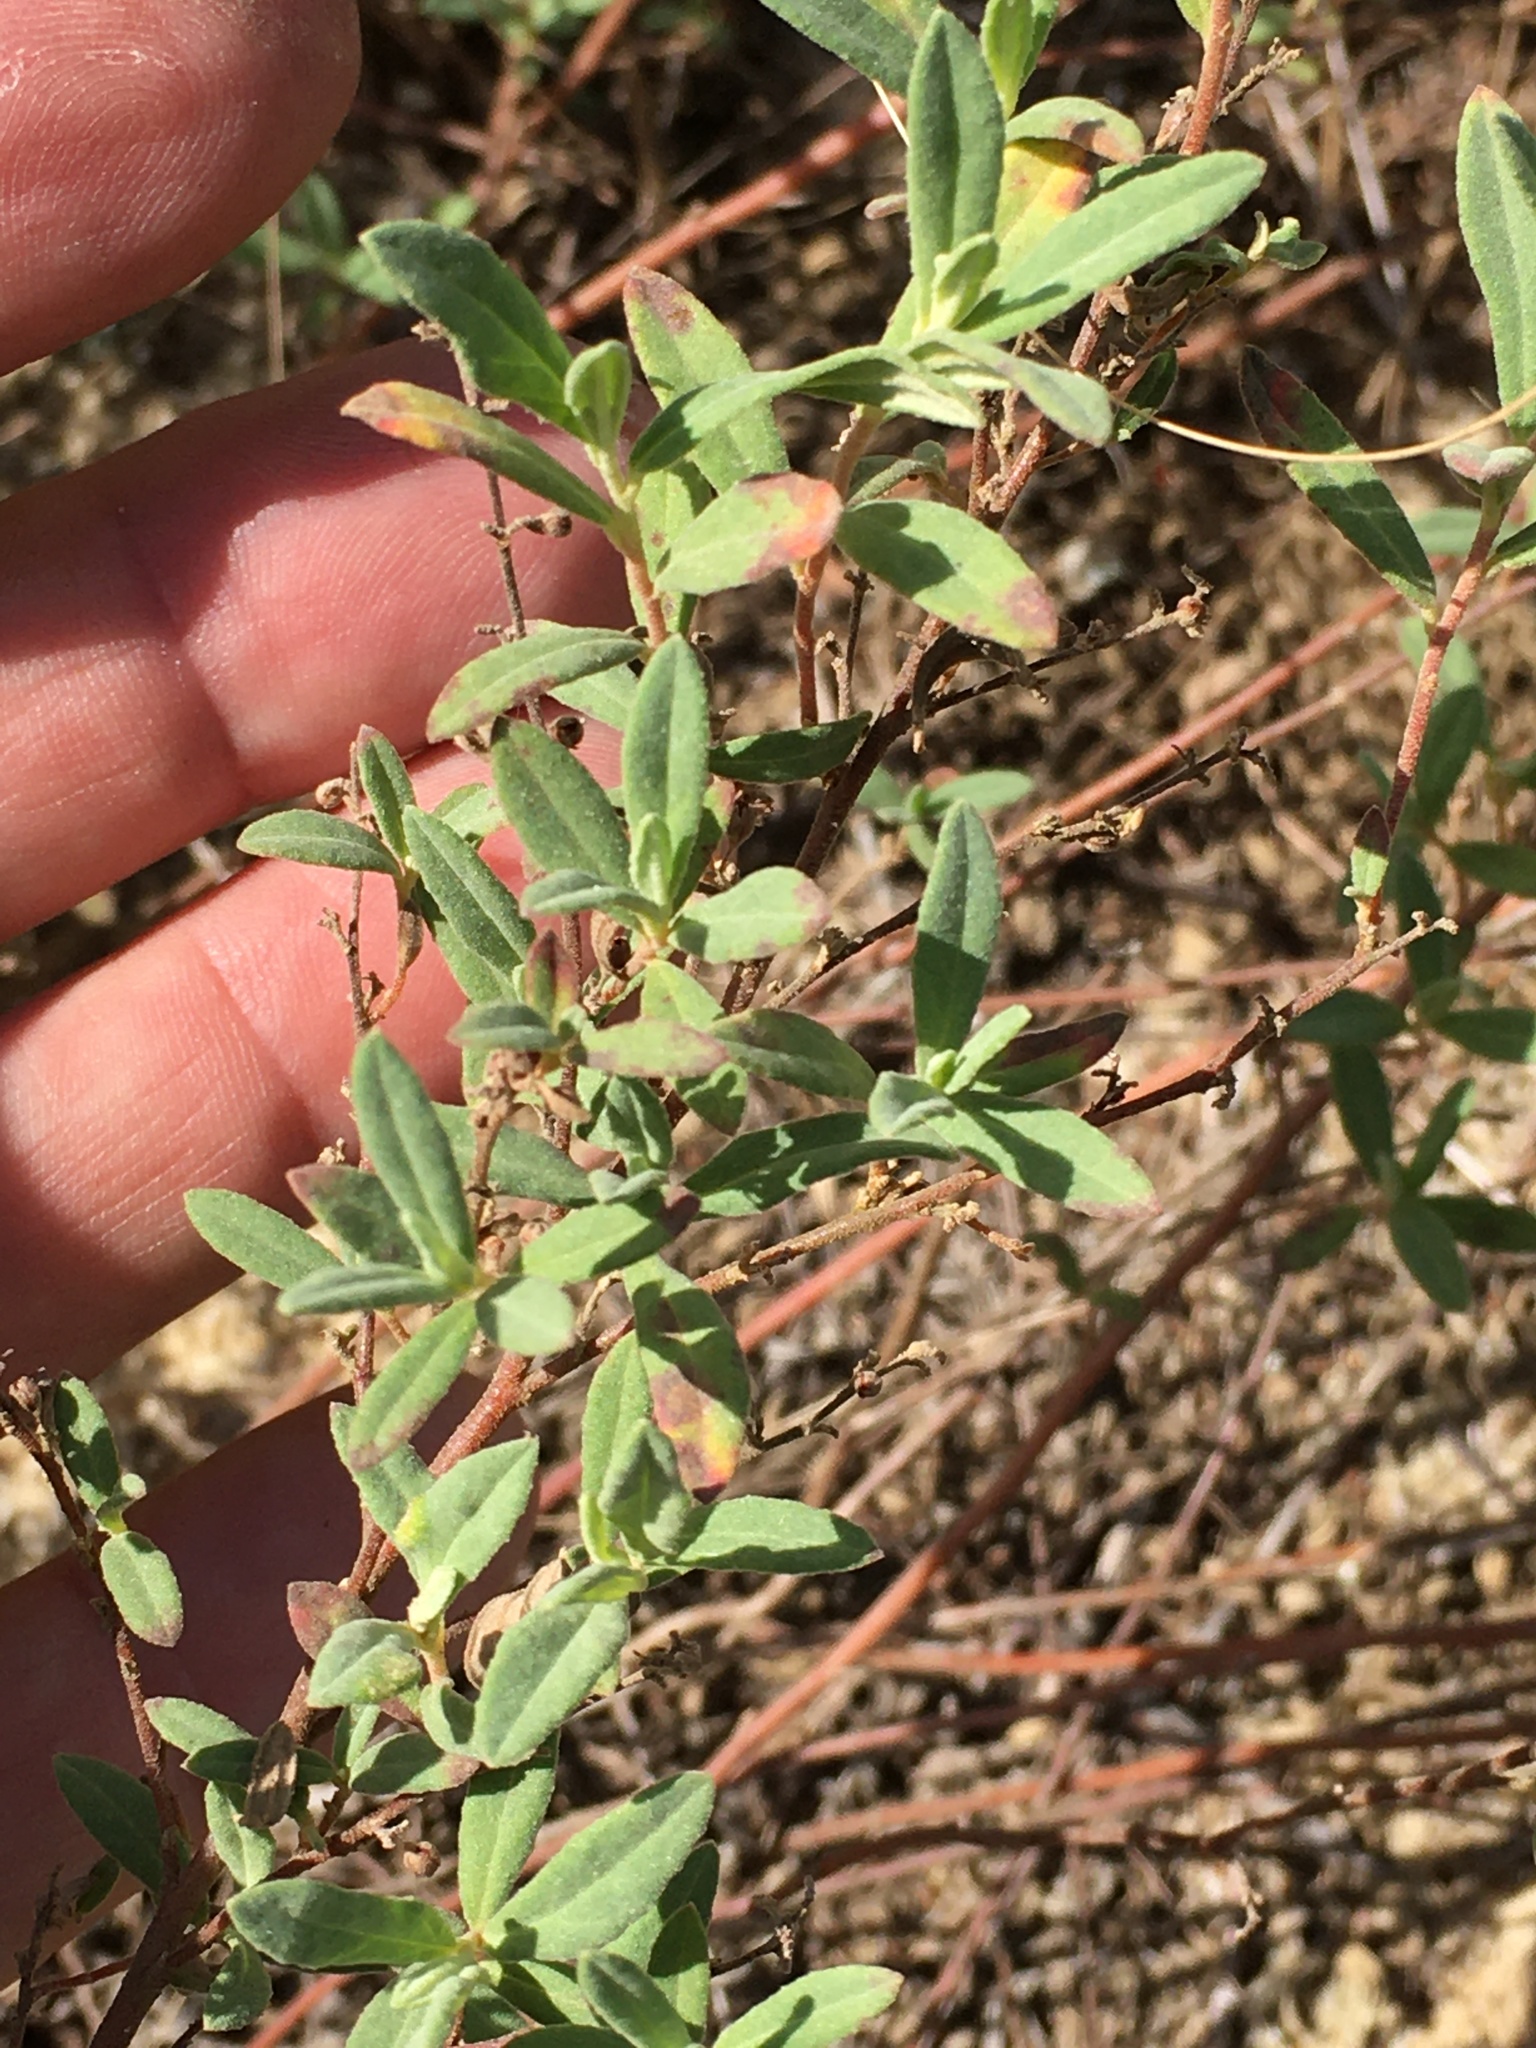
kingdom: Plantae
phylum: Tracheophyta
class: Magnoliopsida
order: Malvales
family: Cistaceae
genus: Crocanthemum
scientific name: Crocanthemum rosmarinifolium
